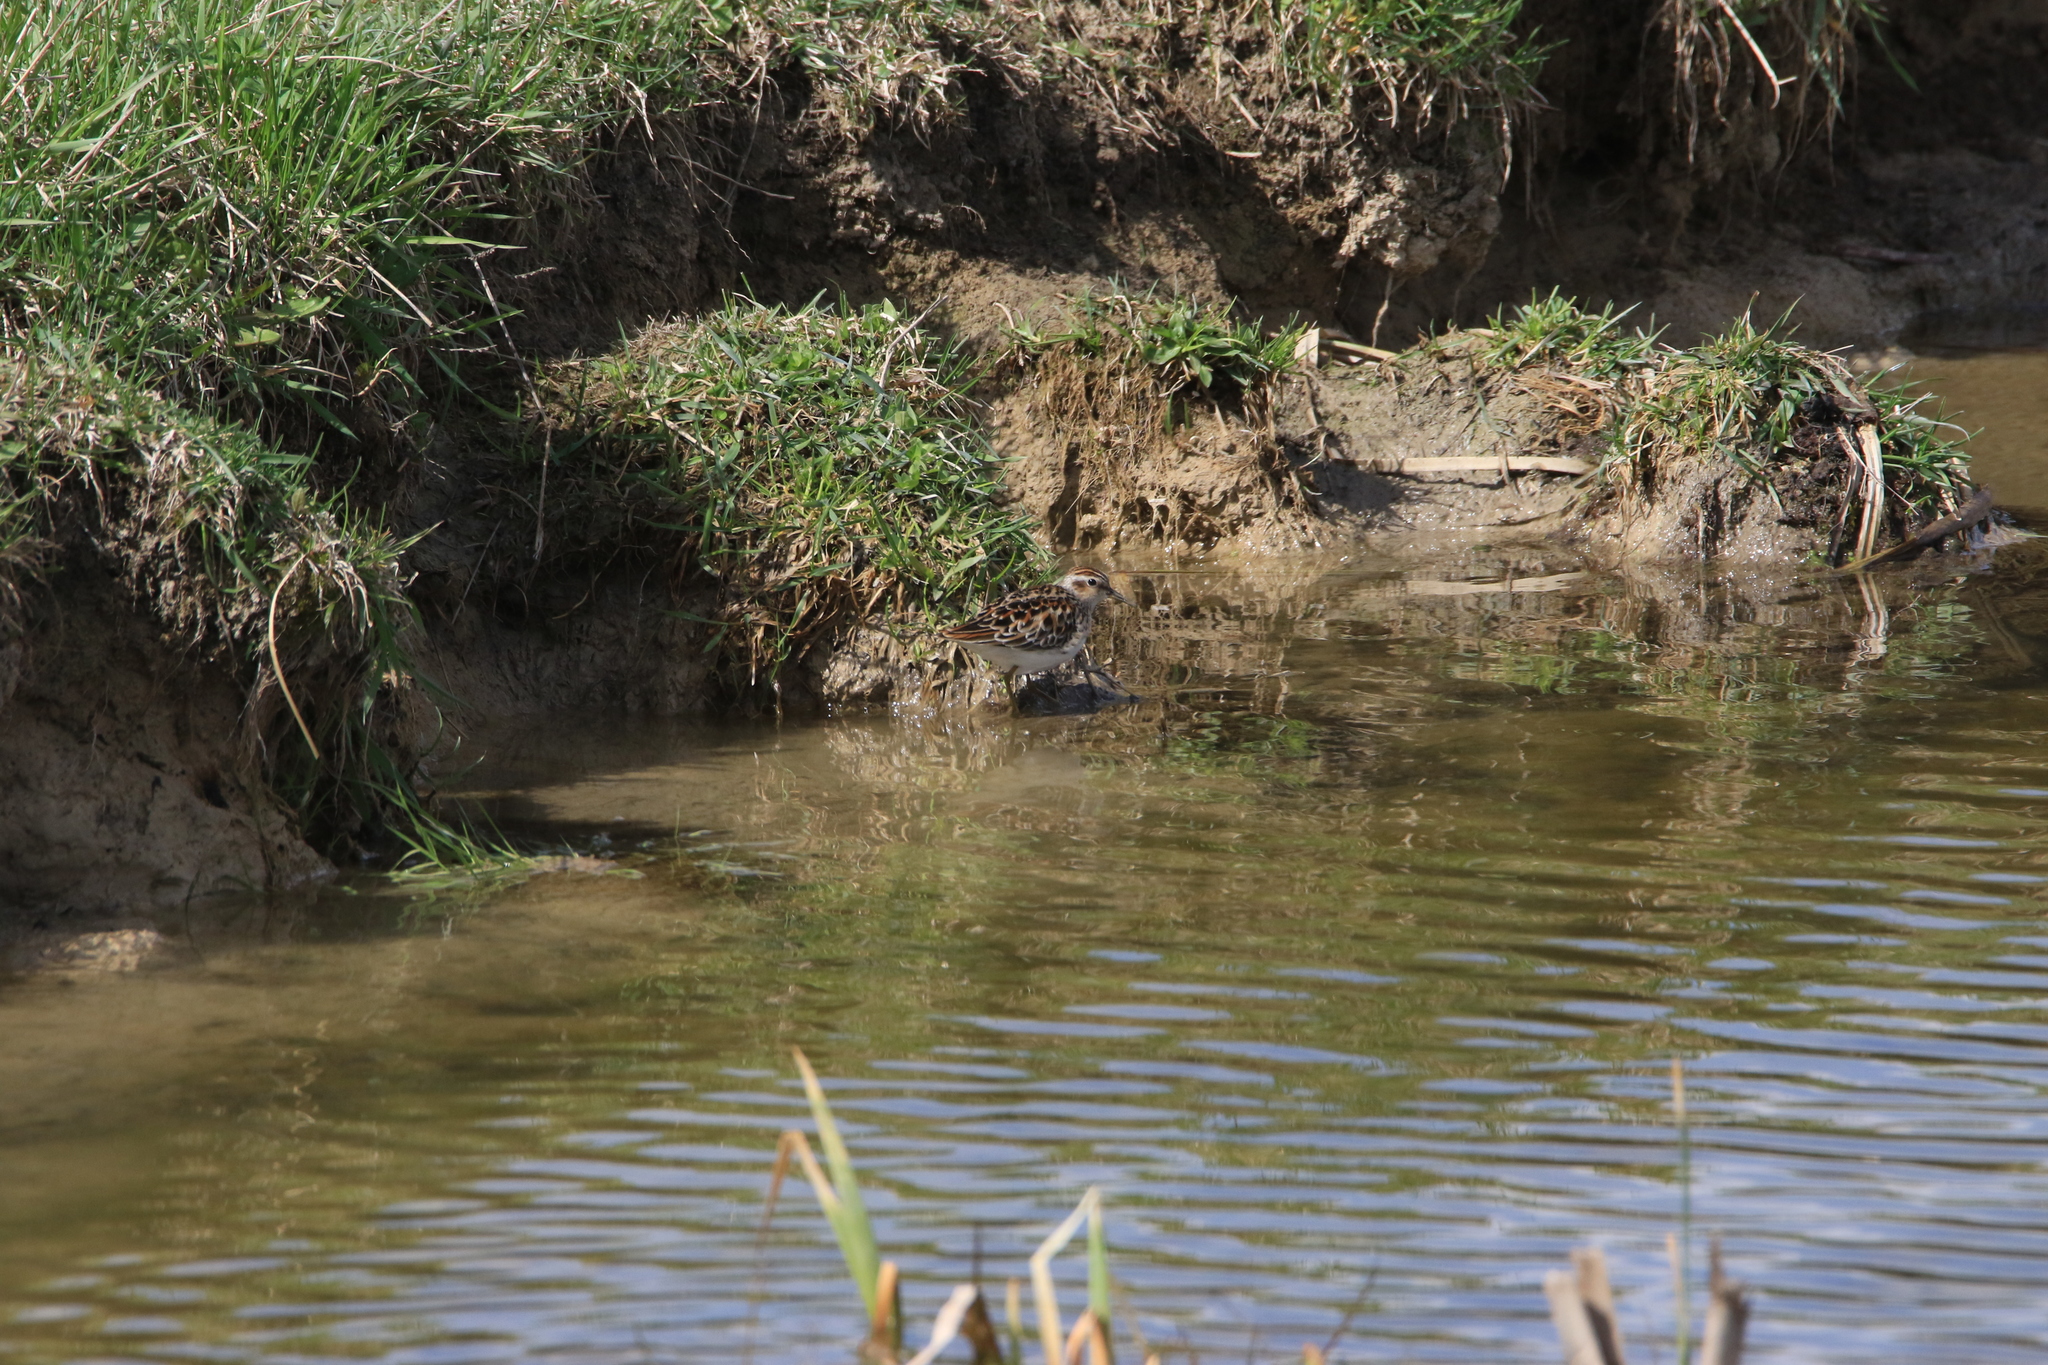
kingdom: Animalia
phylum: Chordata
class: Aves
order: Charadriiformes
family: Scolopacidae
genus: Calidris
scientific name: Calidris subminuta
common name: Long-toed stint
